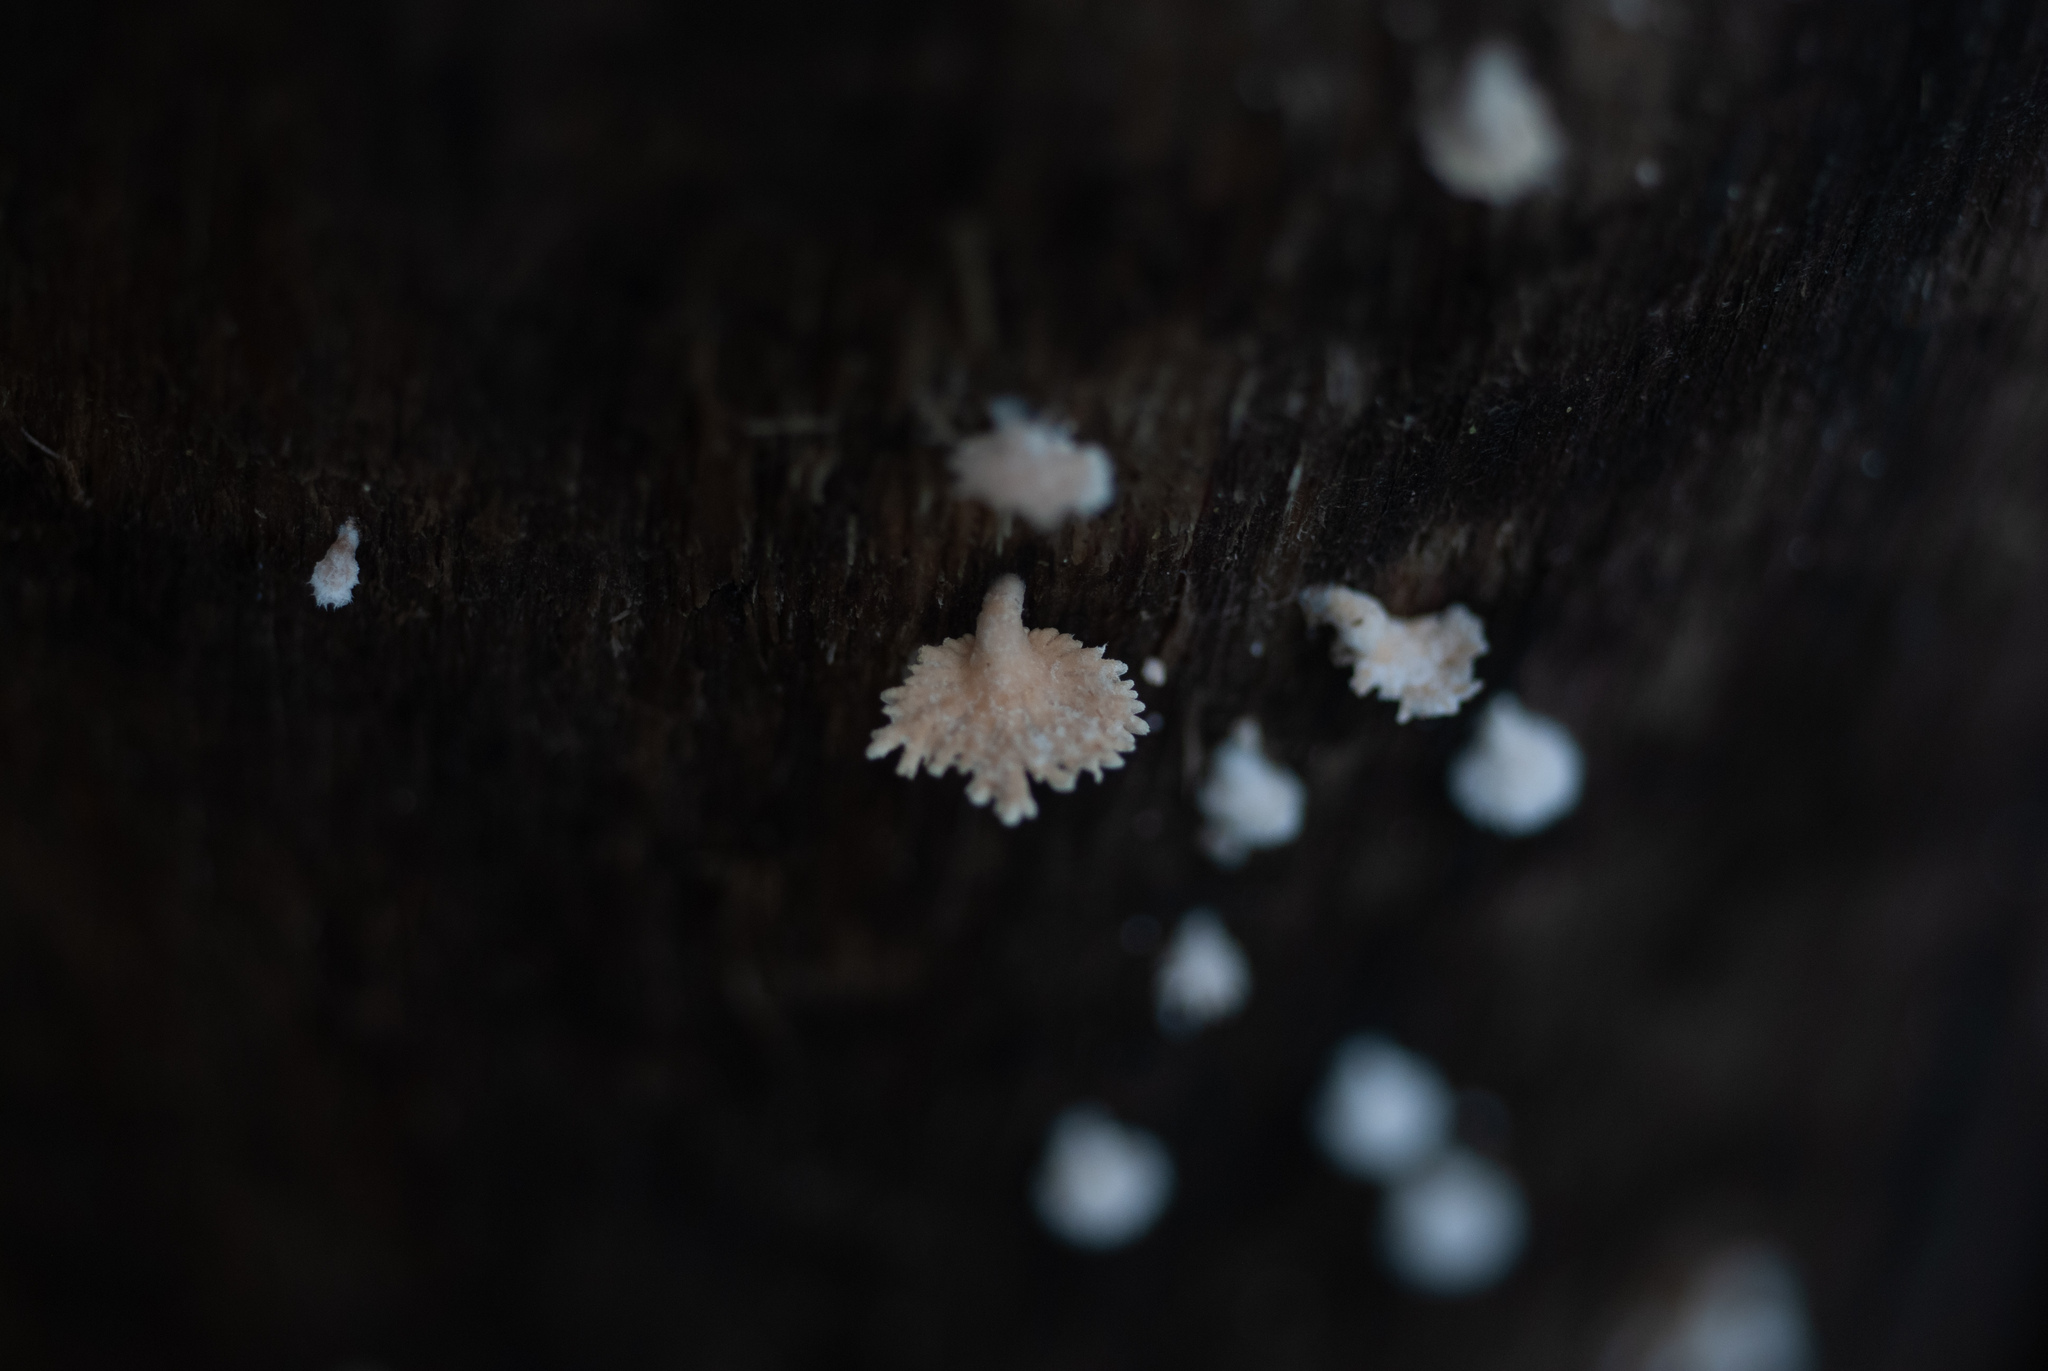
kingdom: Fungi
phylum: Basidiomycota
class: Agaricomycetes
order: Agaricales
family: Schizophyllaceae
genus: Schizophyllum
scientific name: Schizophyllum commune
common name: Common porecrust
